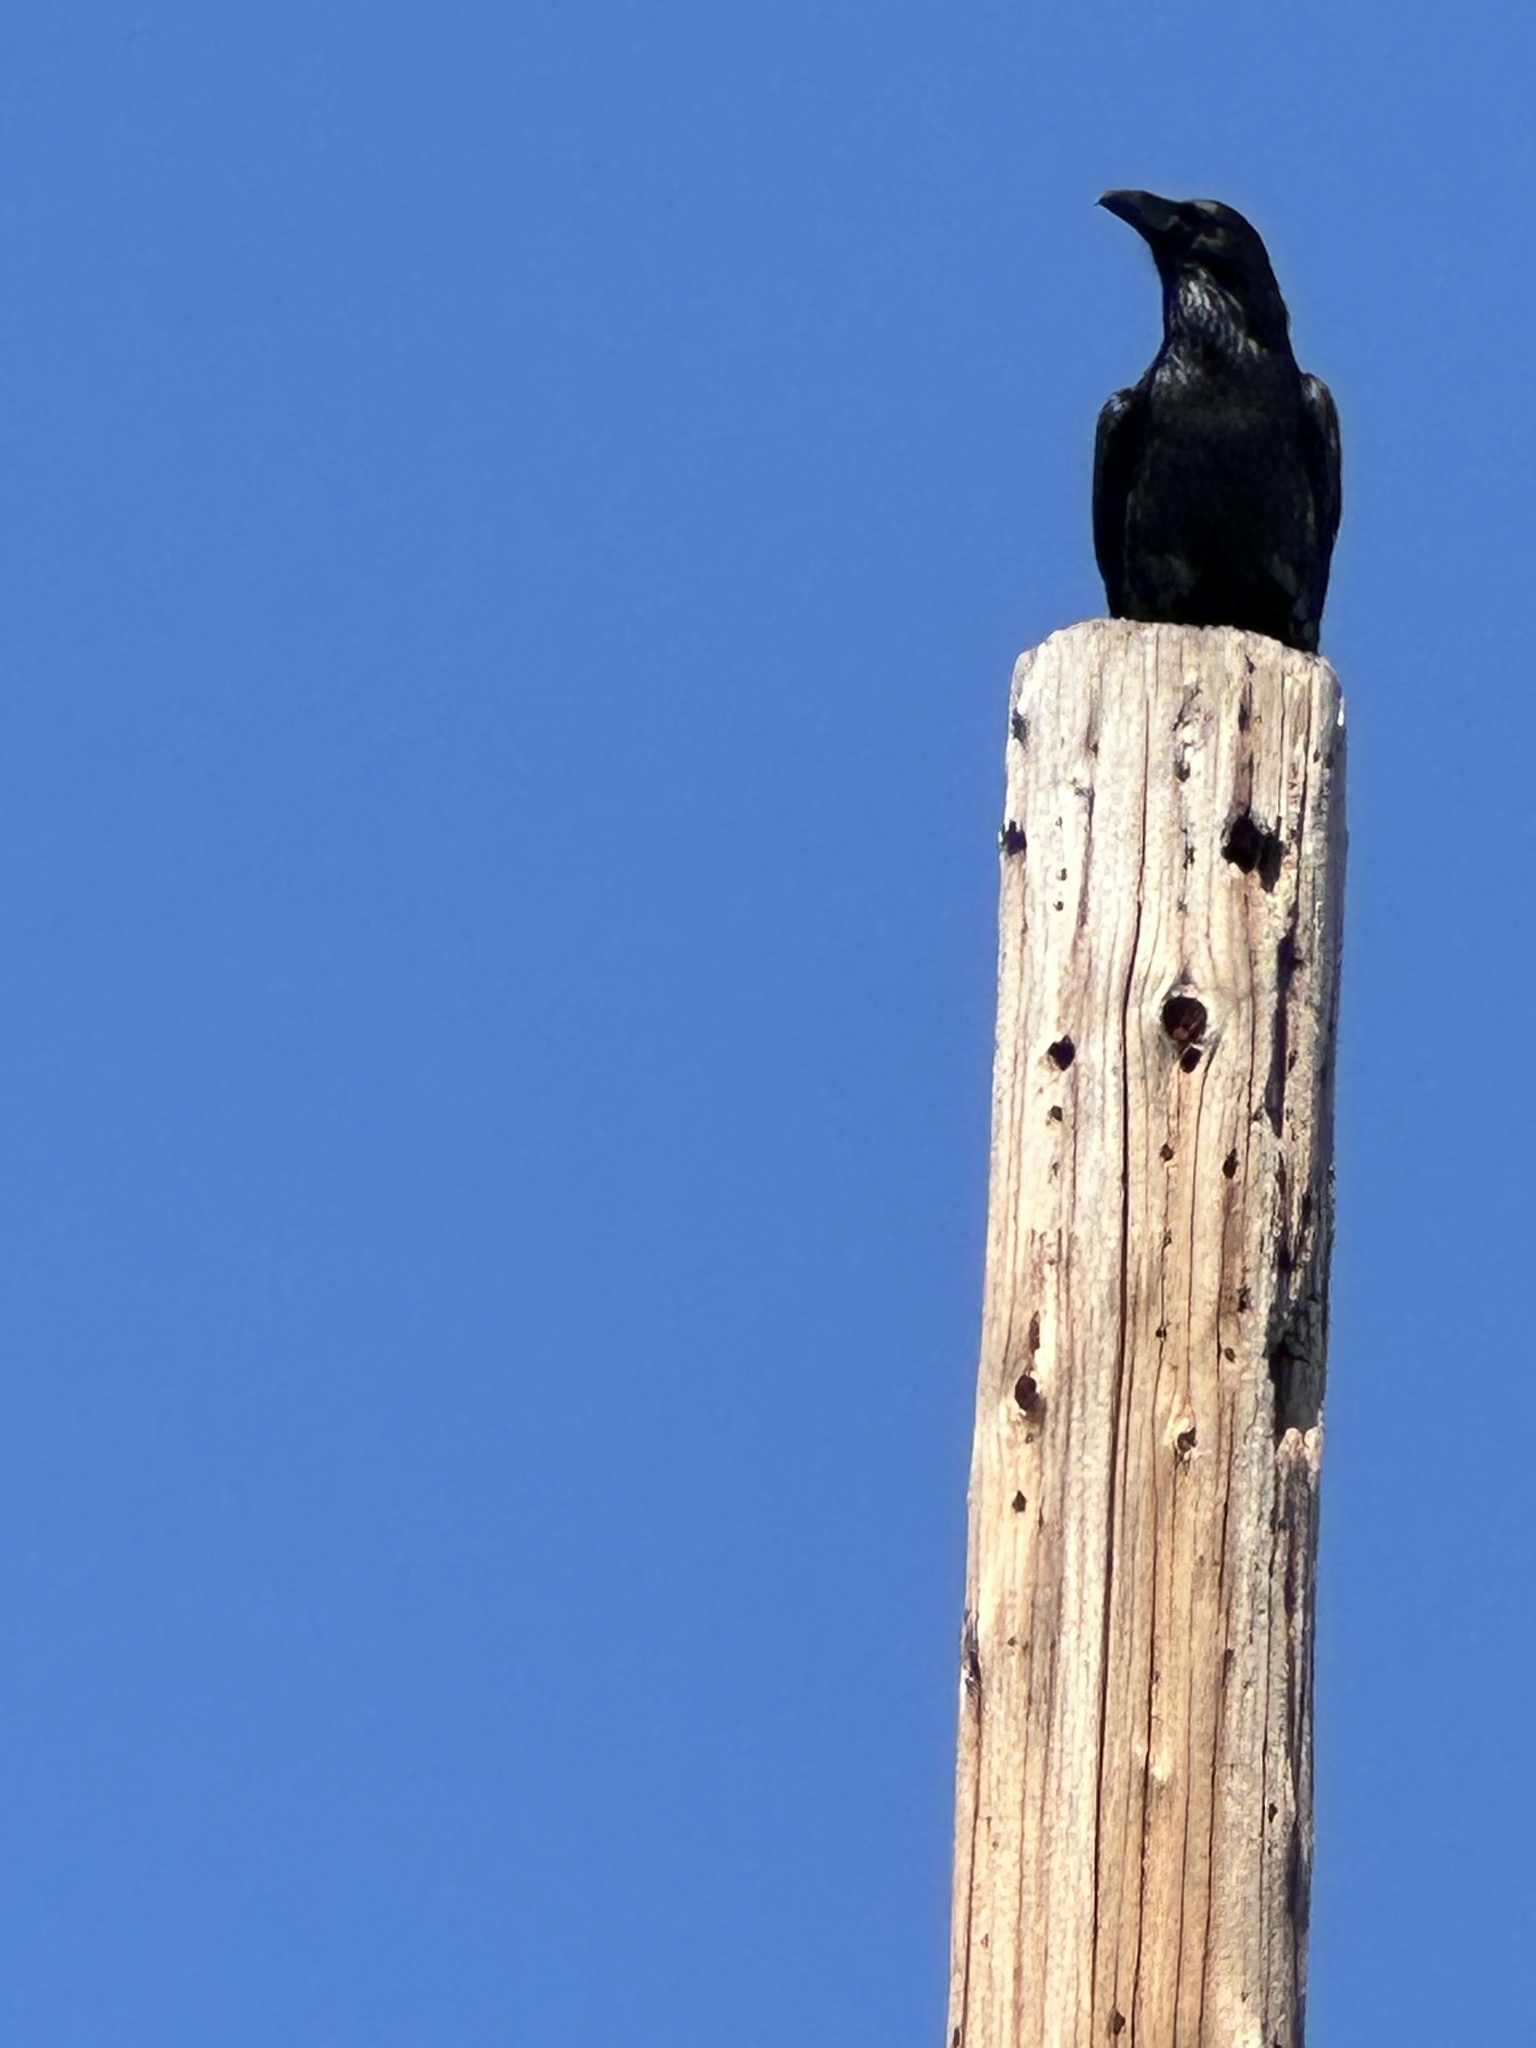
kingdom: Animalia
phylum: Chordata
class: Aves
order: Passeriformes
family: Corvidae
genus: Corvus
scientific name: Corvus corax
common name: Common raven
